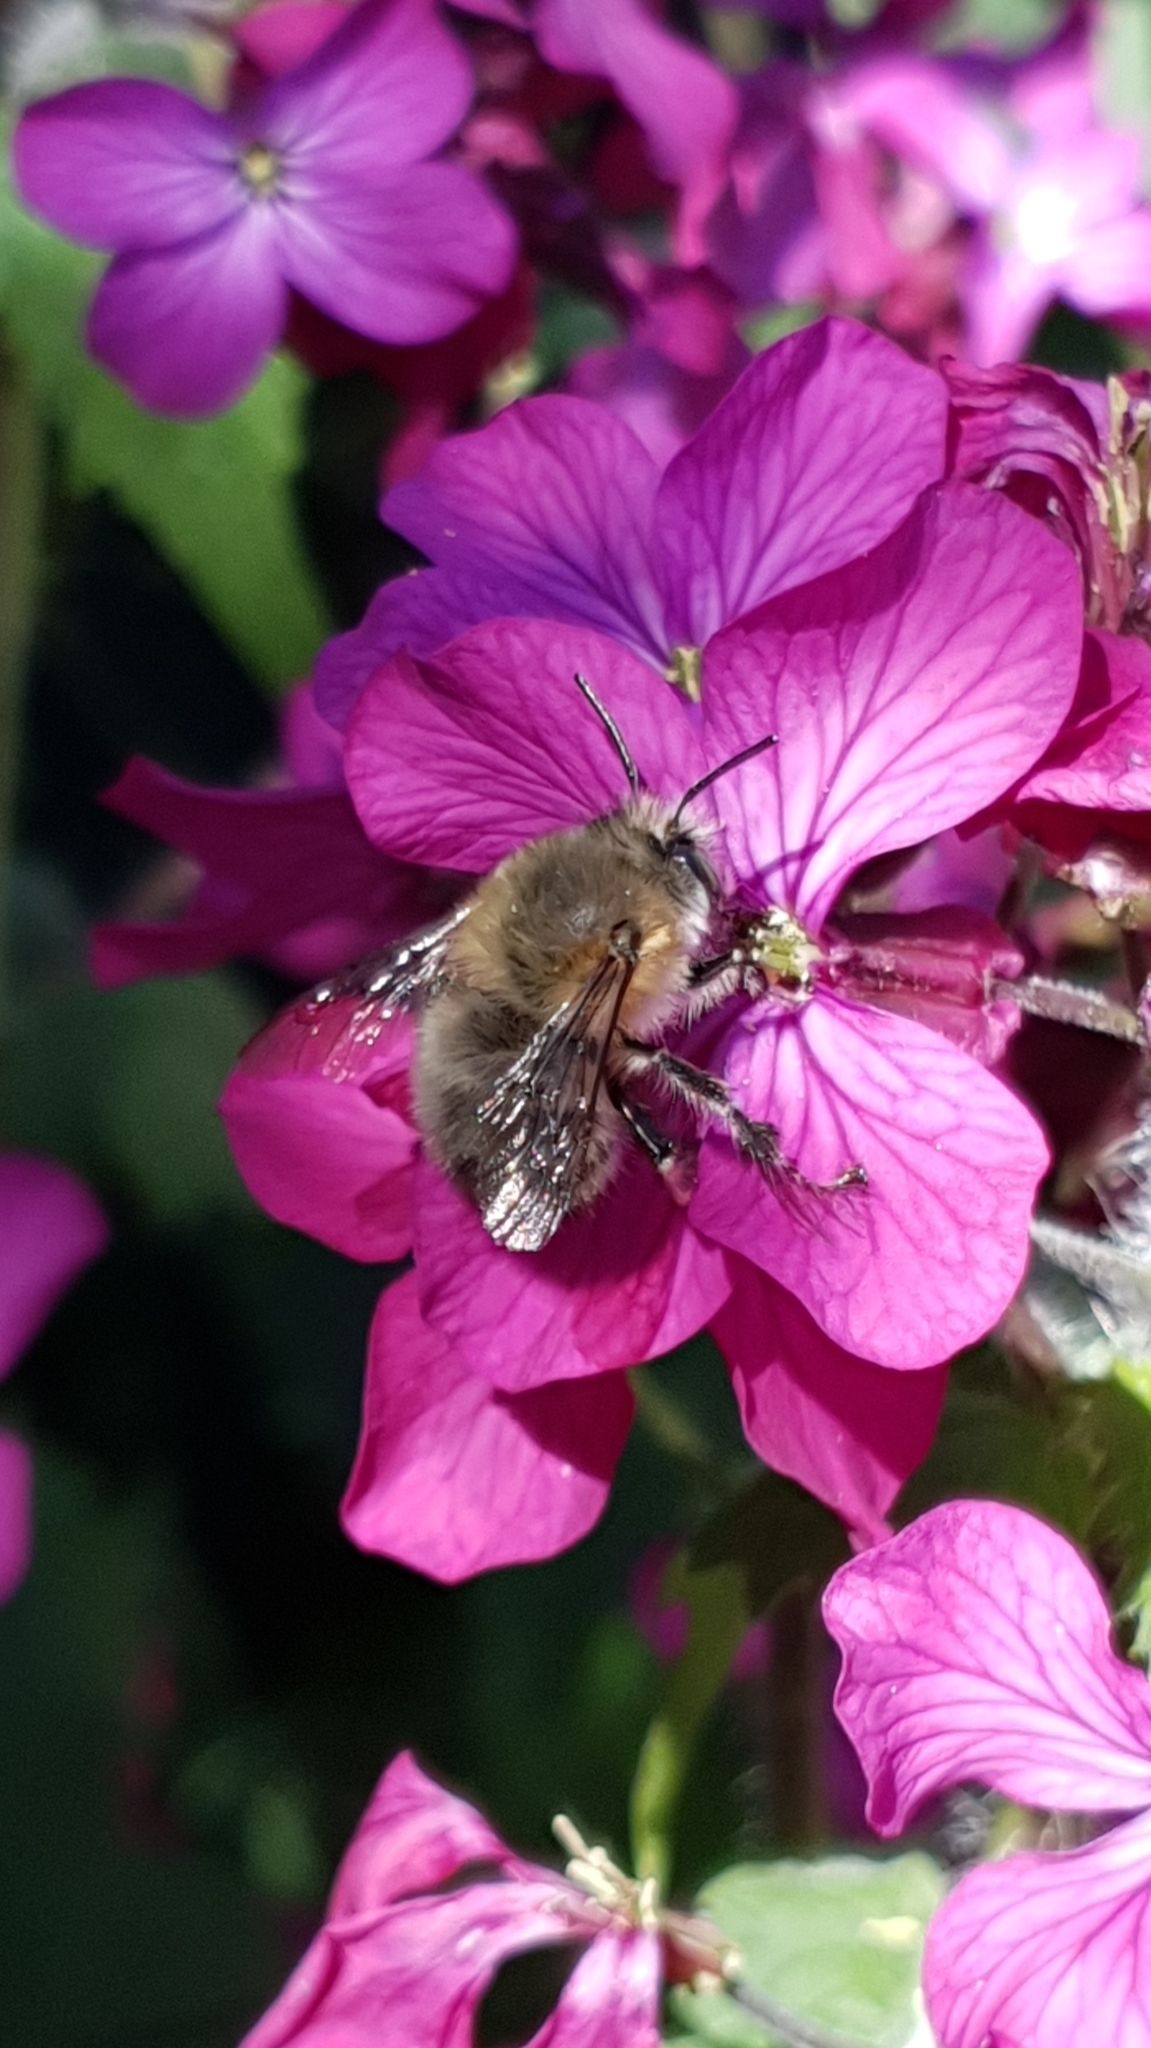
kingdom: Animalia
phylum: Arthropoda
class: Insecta
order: Hymenoptera
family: Apidae
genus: Anthophora
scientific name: Anthophora plumipes
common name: Hairy-footed flower bee
